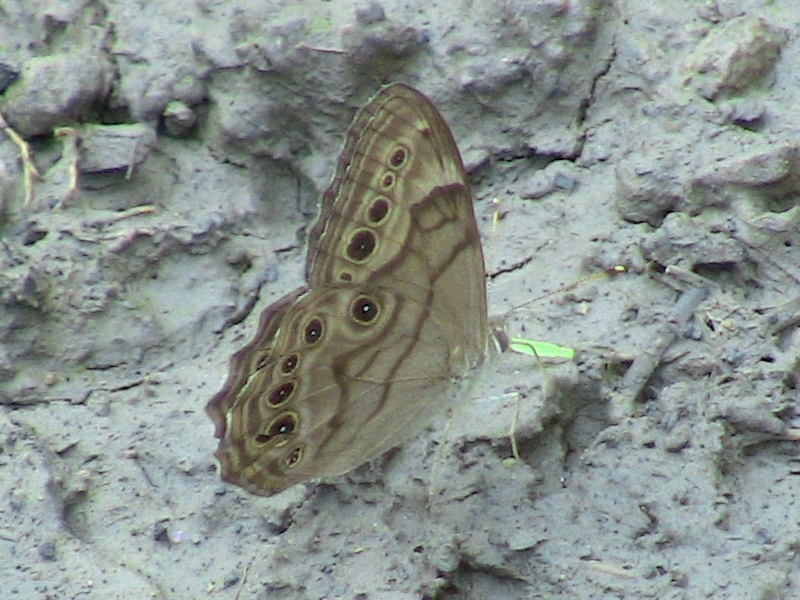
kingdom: Animalia
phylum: Arthropoda
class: Insecta
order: Lepidoptera
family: Nymphalidae
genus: Lethe
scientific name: Lethe anthedon
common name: Northern pearly-eye
